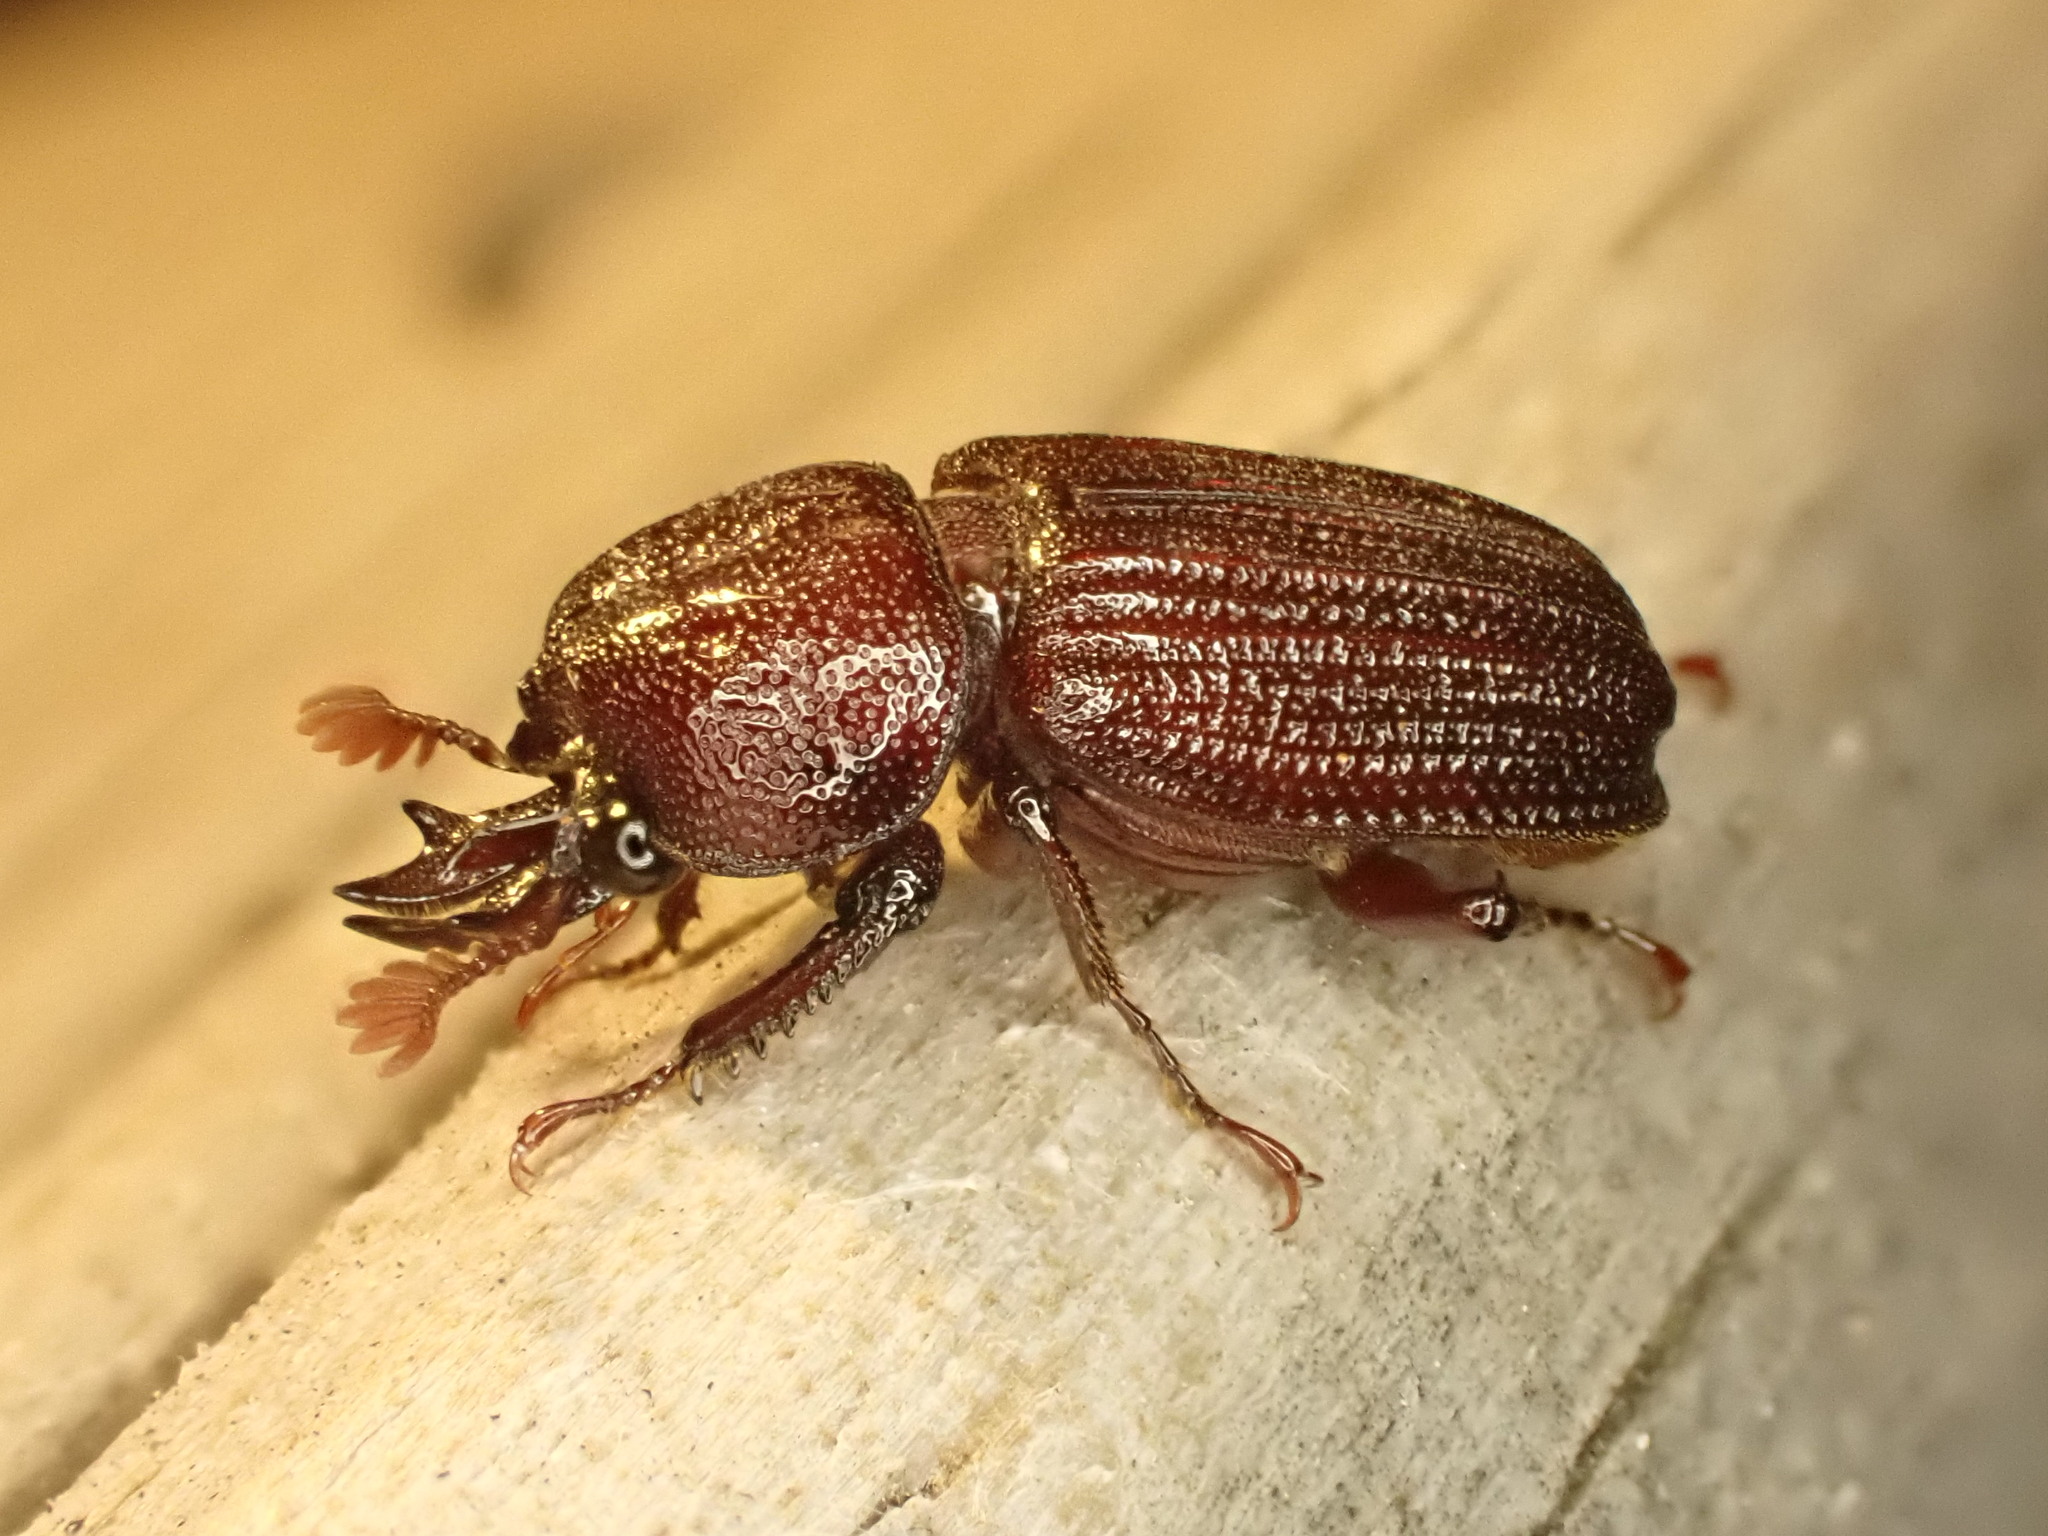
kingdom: Animalia
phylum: Arthropoda
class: Insecta
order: Coleoptera
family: Lucanidae
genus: Syndesus
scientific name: Syndesus cornutus
